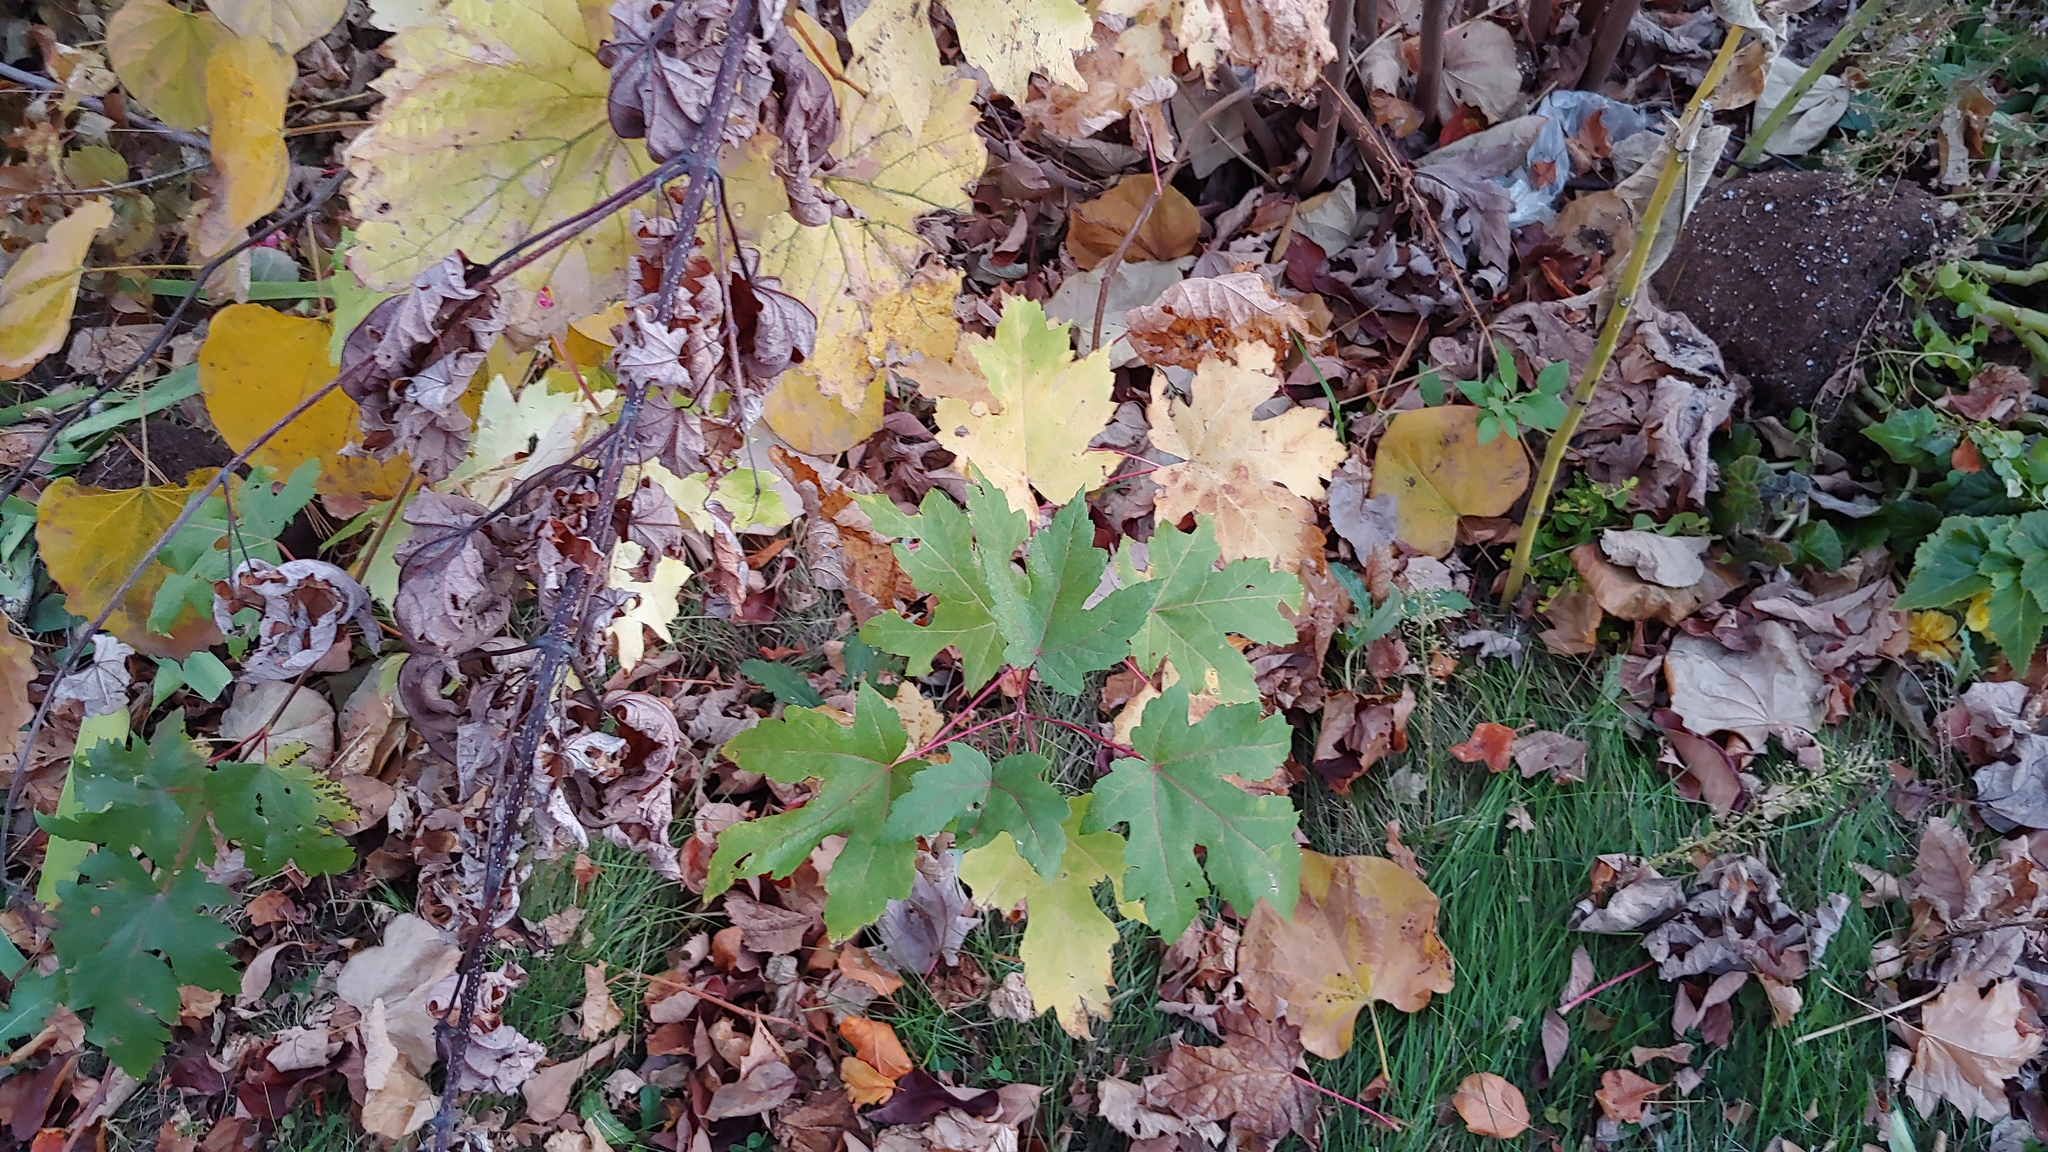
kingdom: Plantae
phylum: Tracheophyta
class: Magnoliopsida
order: Sapindales
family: Sapindaceae
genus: Acer
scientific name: Acer saccharinum
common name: Silver maple
